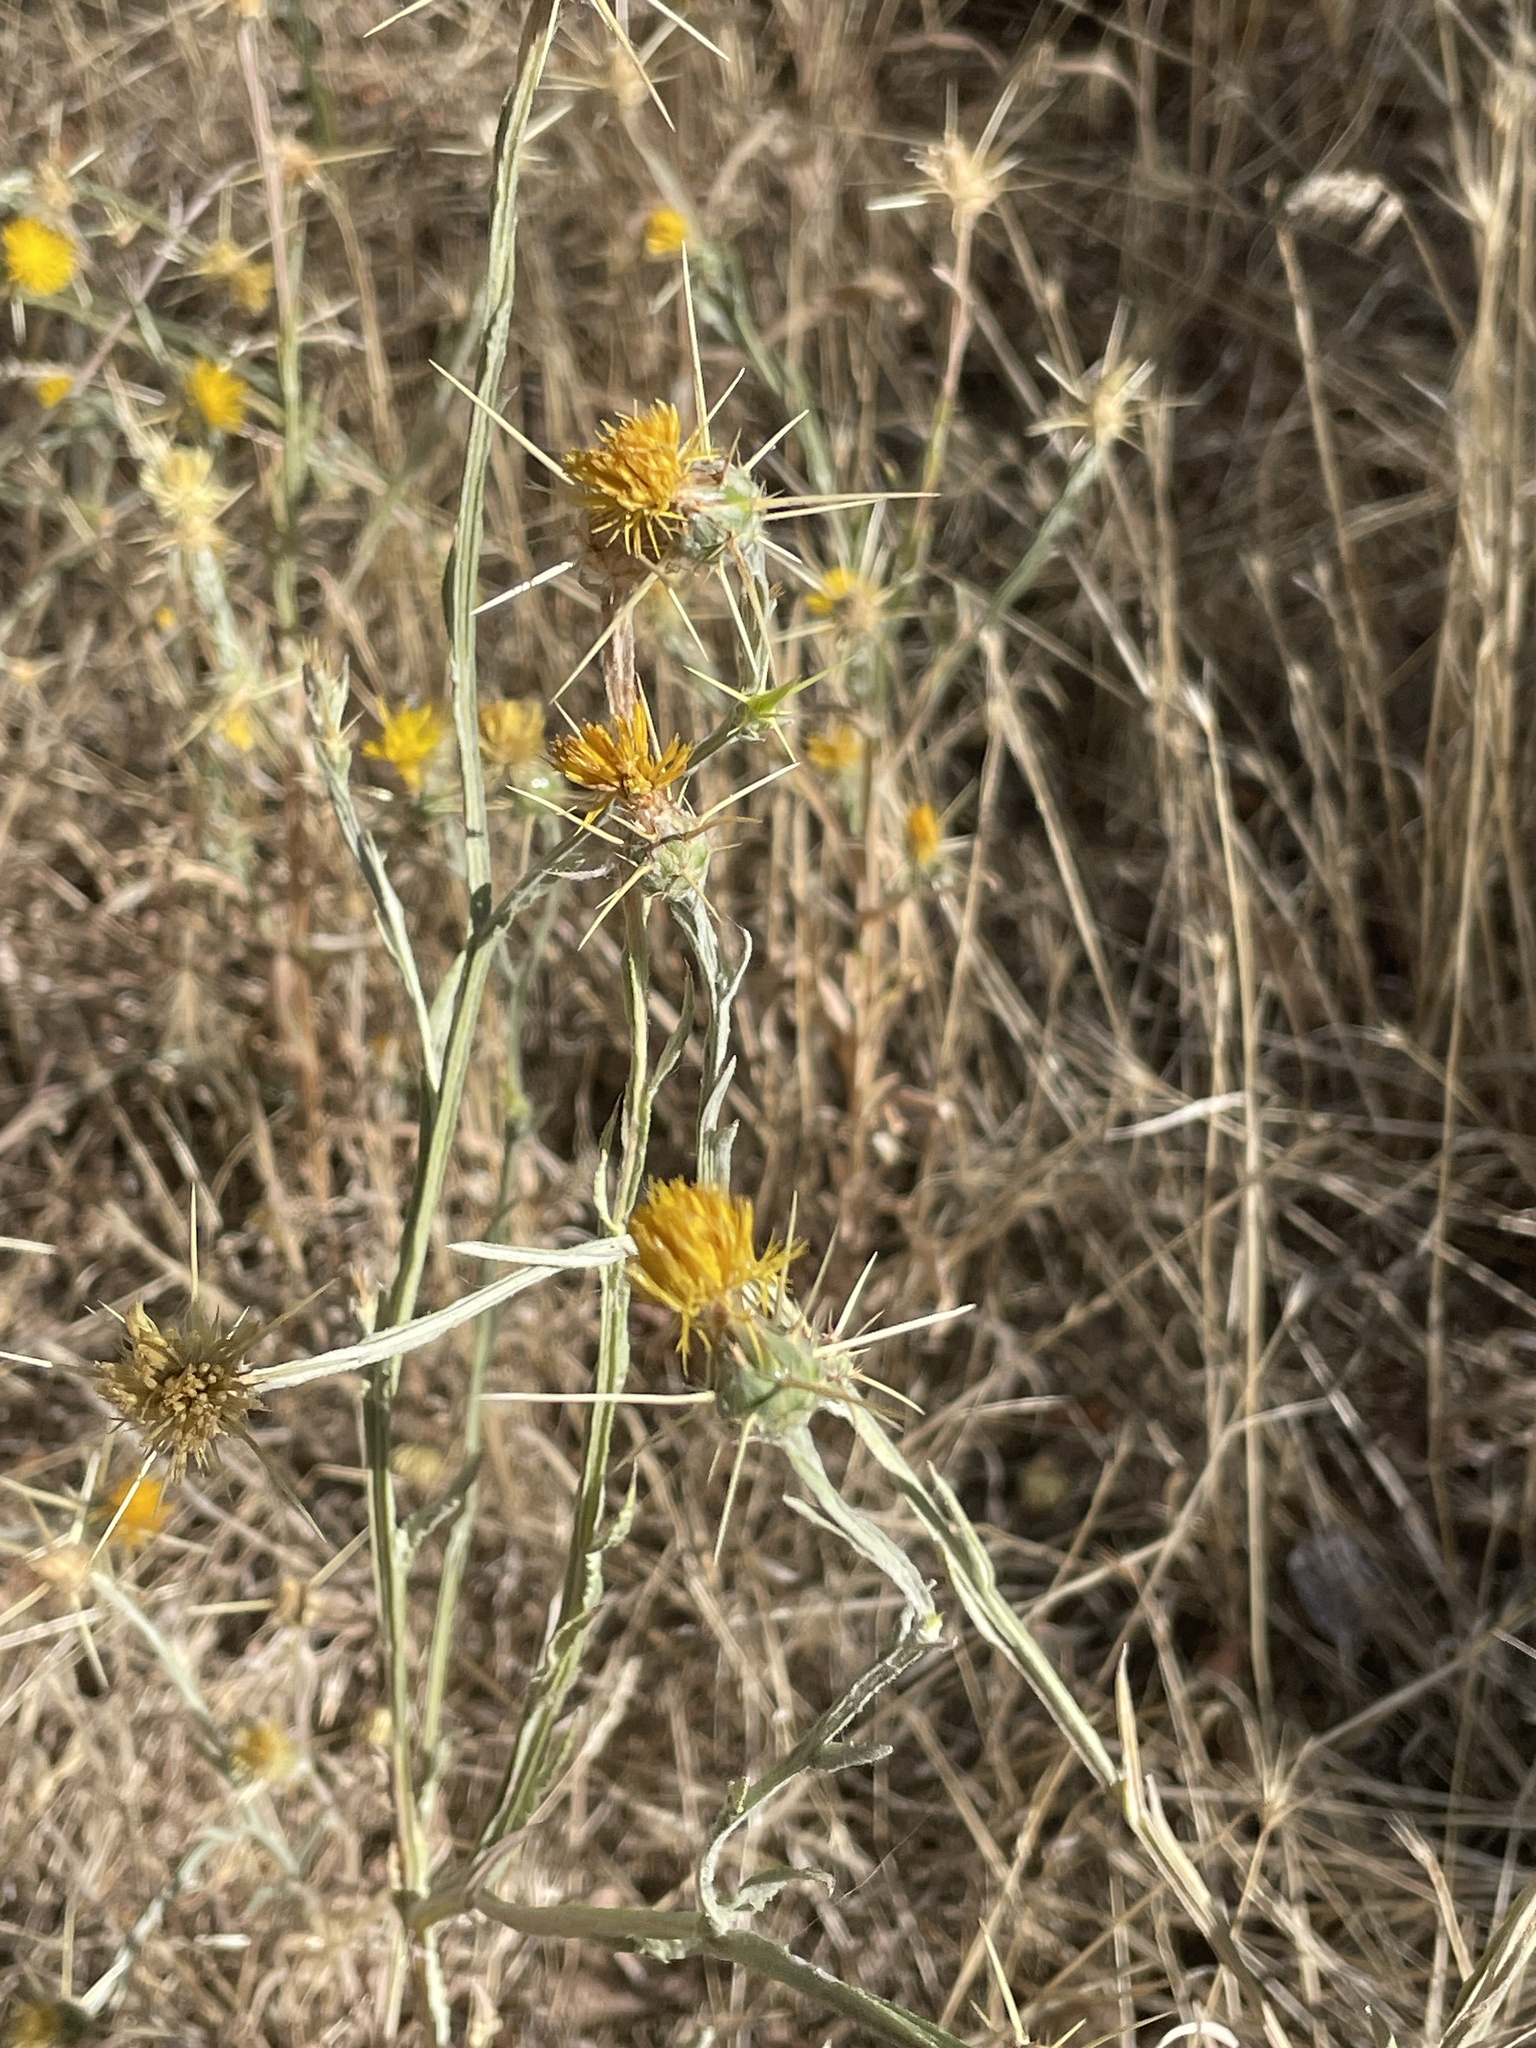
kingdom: Plantae
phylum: Tracheophyta
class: Magnoliopsida
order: Asterales
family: Asteraceae
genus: Centaurea
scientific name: Centaurea solstitialis
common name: Yellow star-thistle
